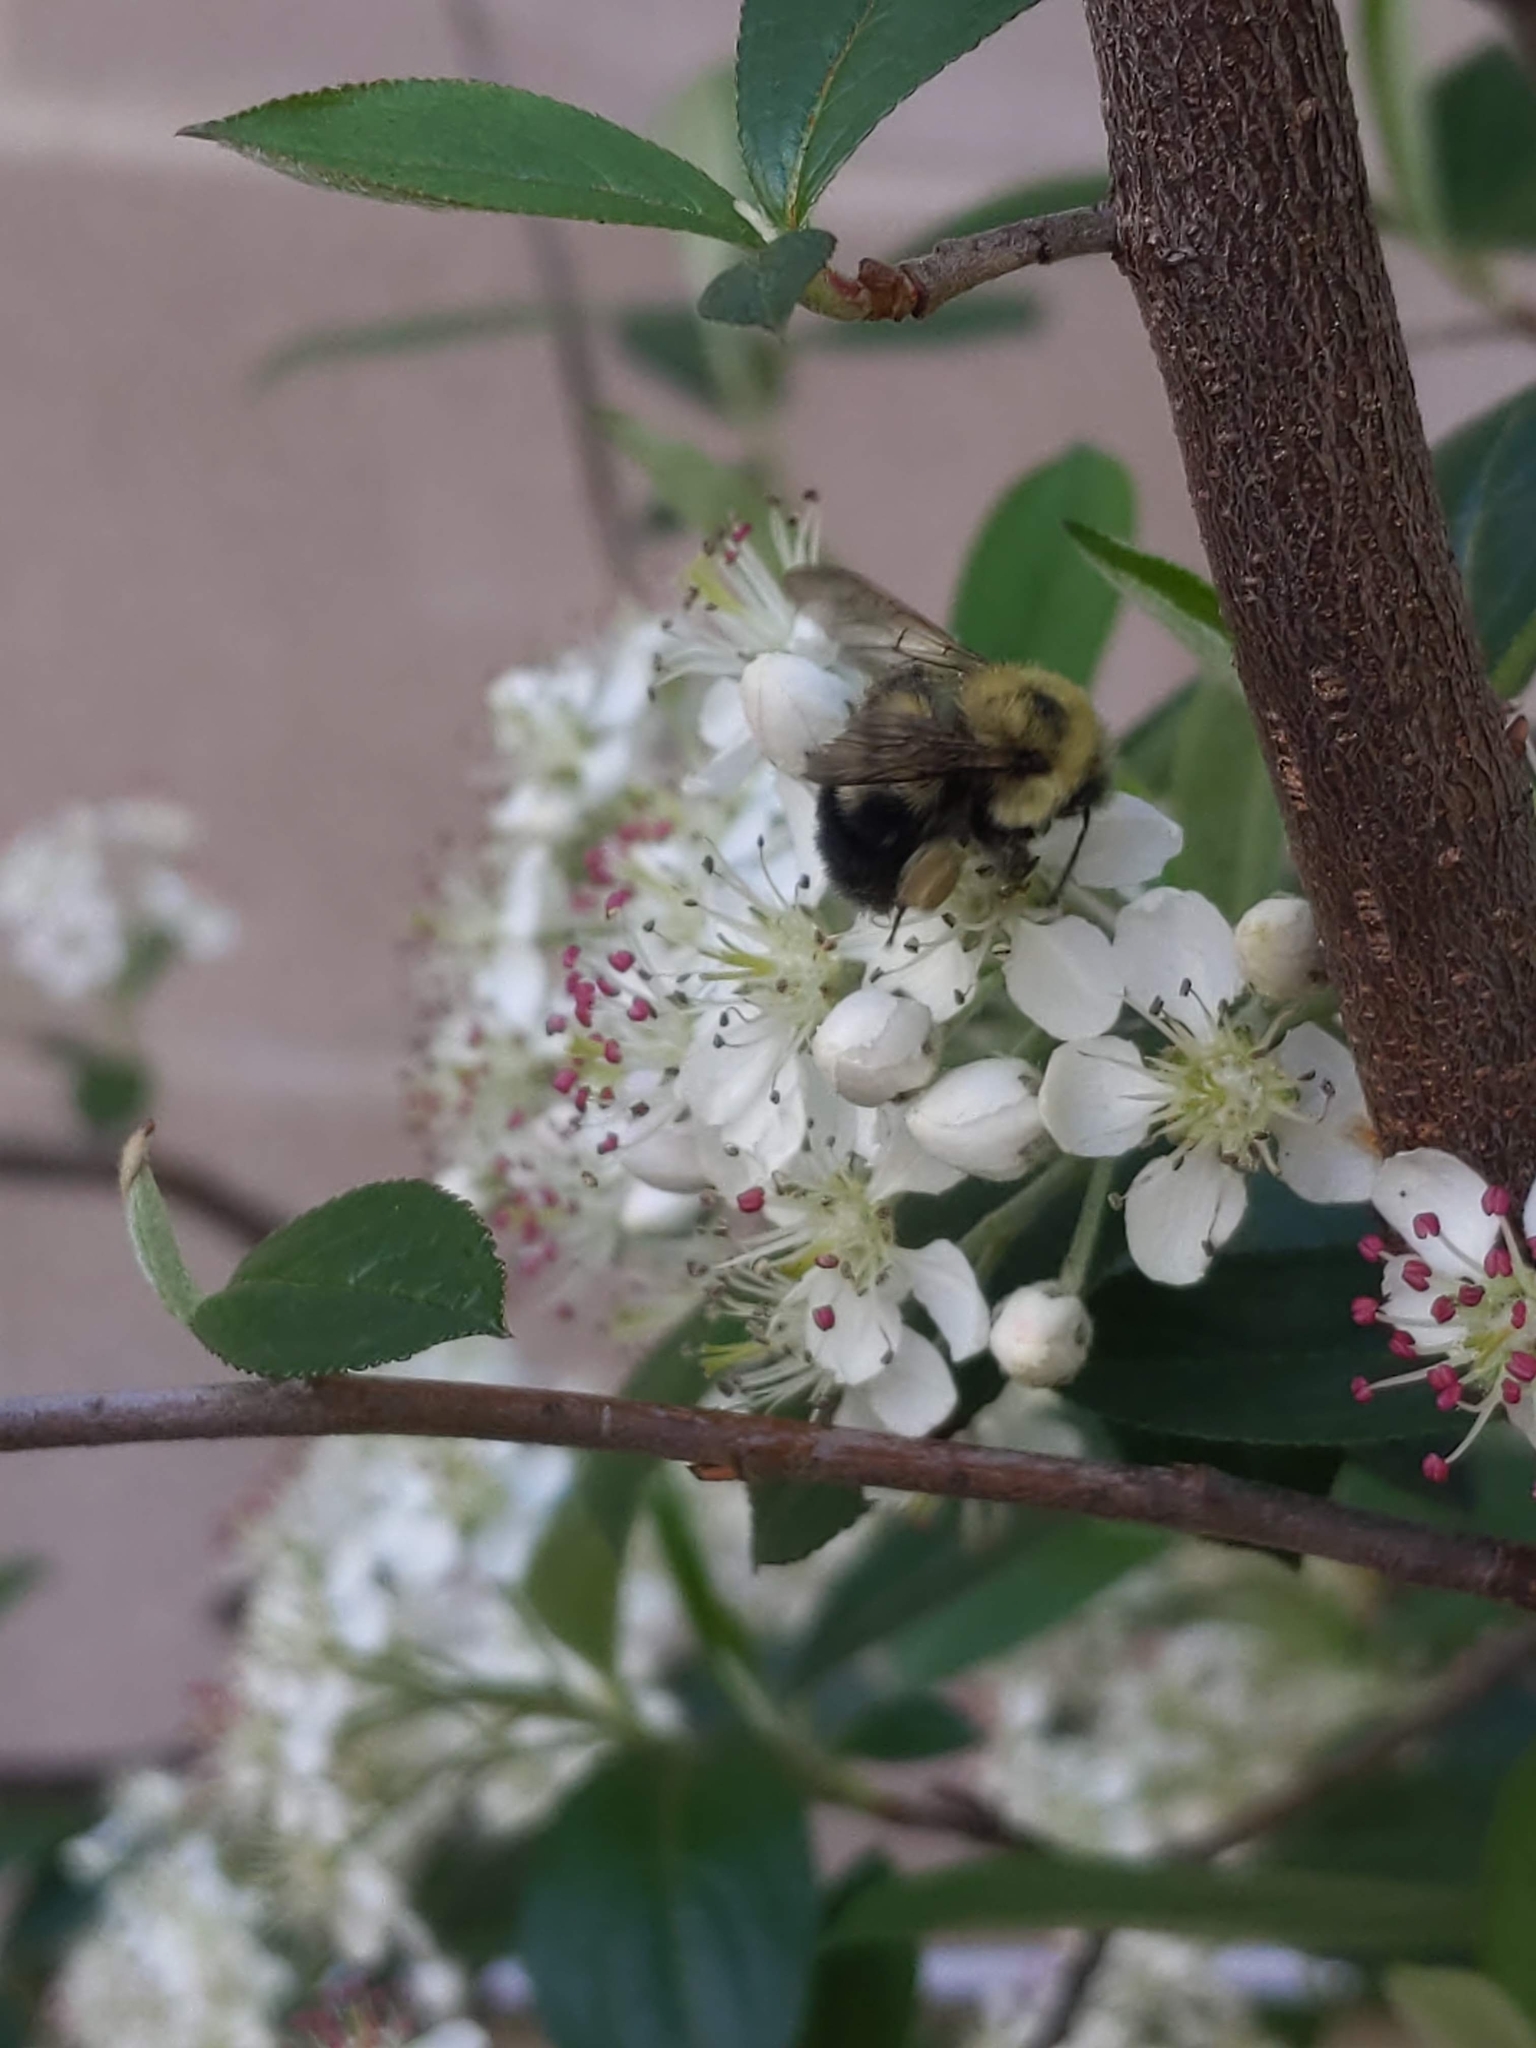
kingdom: Animalia
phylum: Arthropoda
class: Insecta
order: Hymenoptera
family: Apidae
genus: Bombus
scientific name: Bombus bimaculatus
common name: Two-spotted bumble bee
